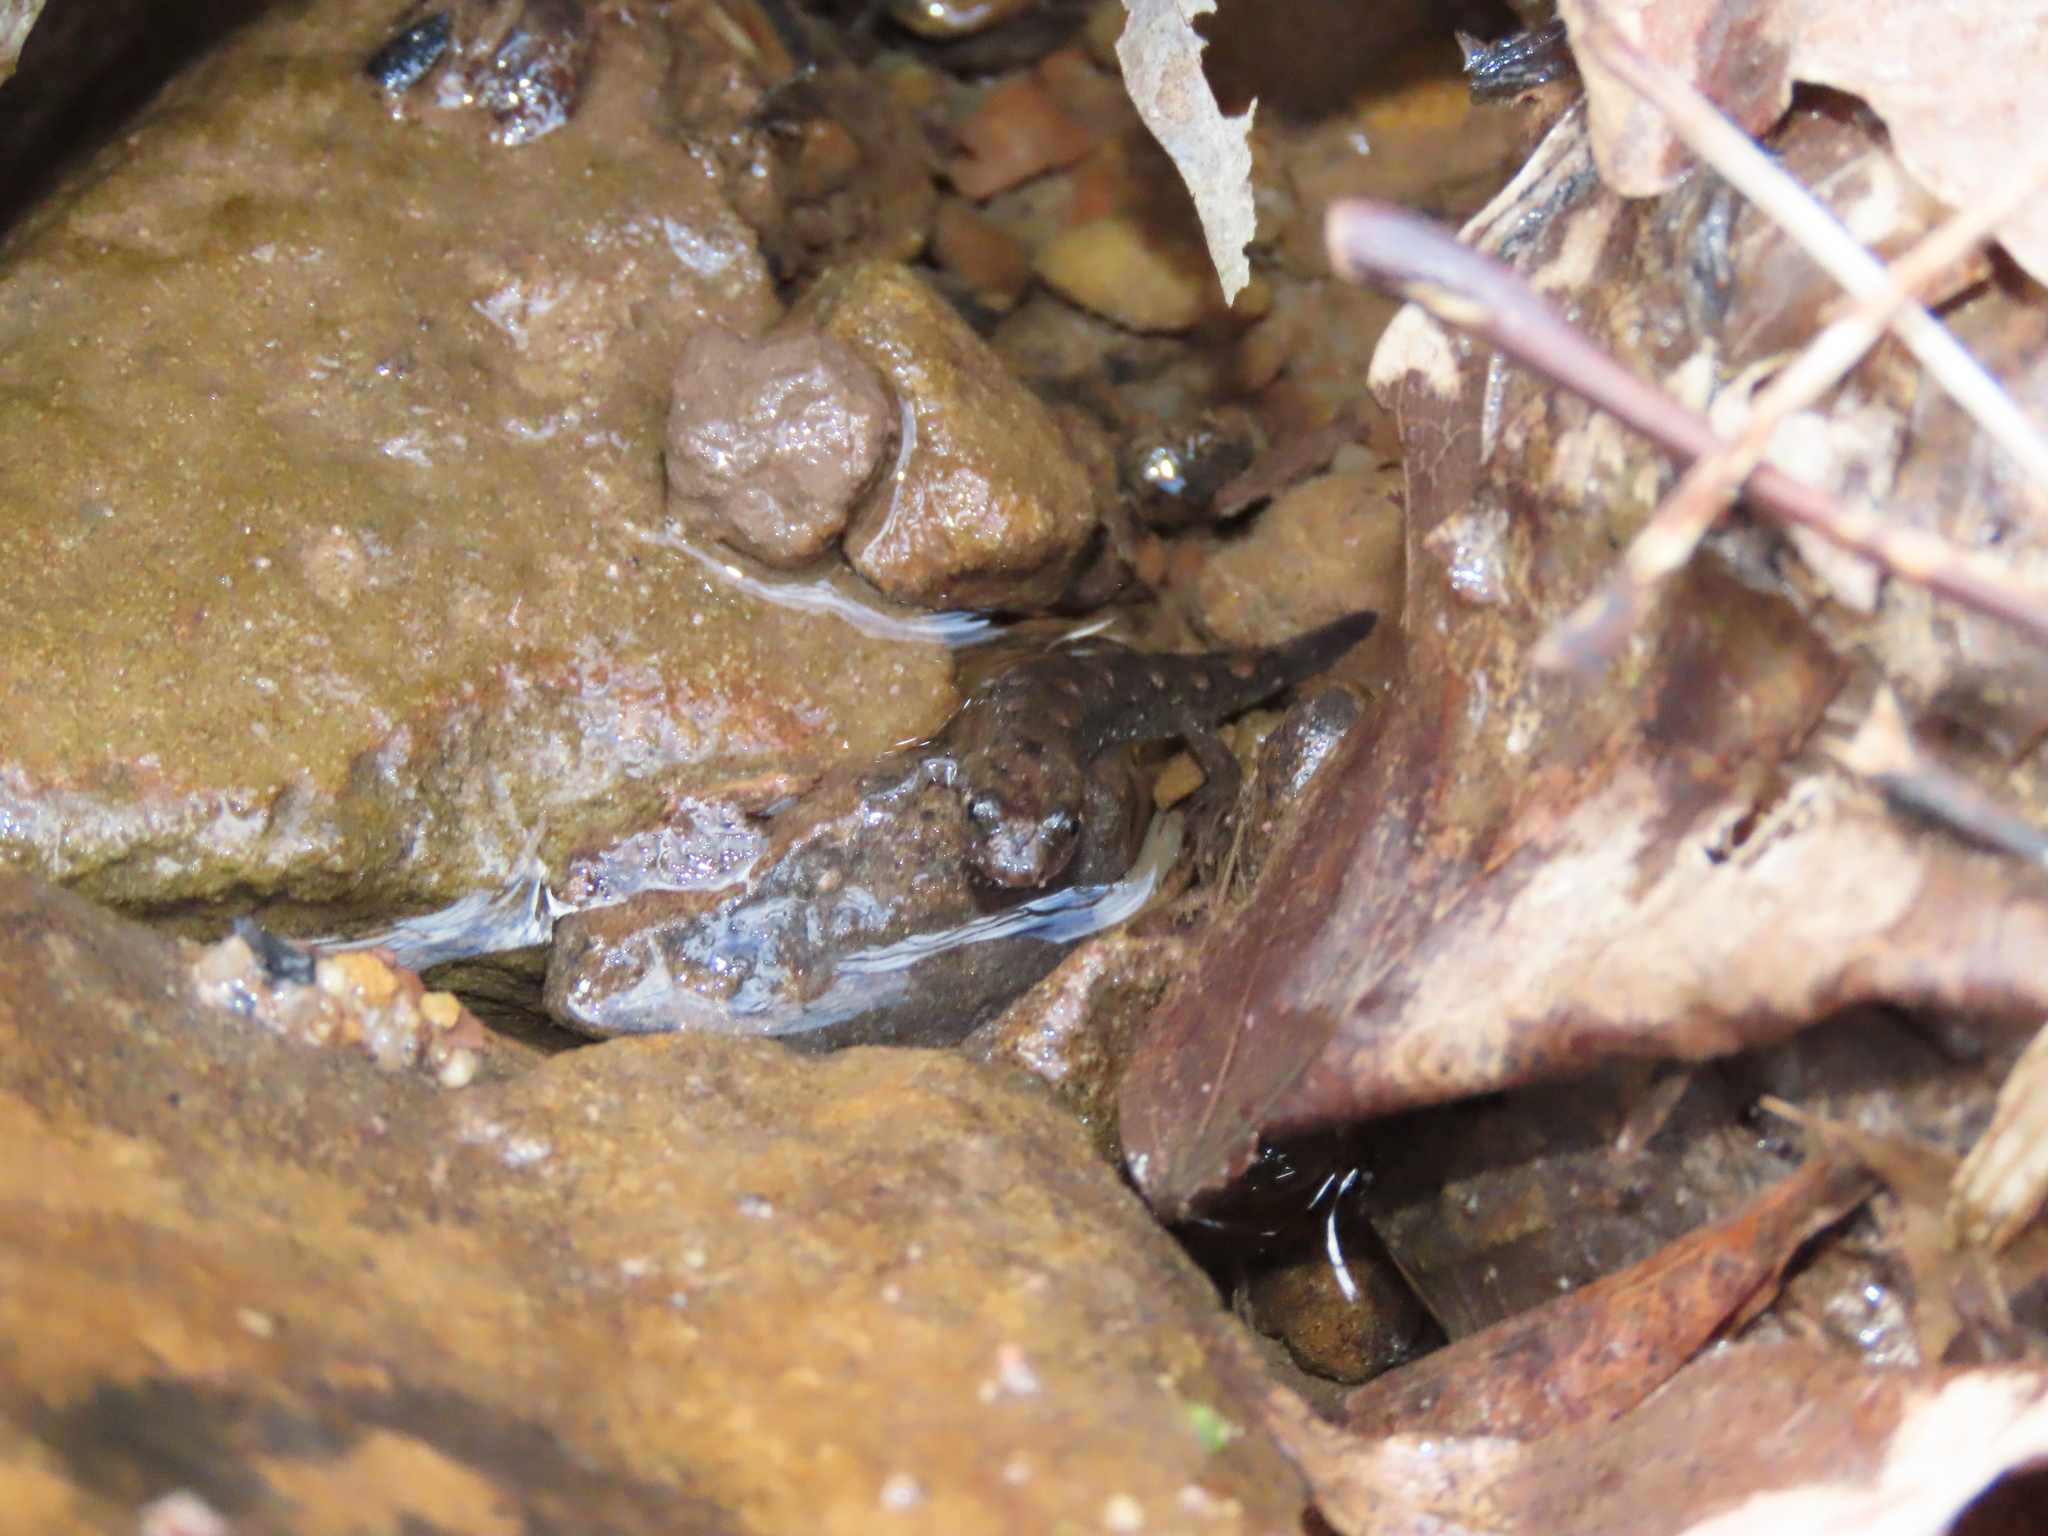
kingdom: Animalia
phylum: Chordata
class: Amphibia
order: Caudata
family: Plethodontidae
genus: Desmognathus
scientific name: Desmognathus monticola
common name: Seal salamander
